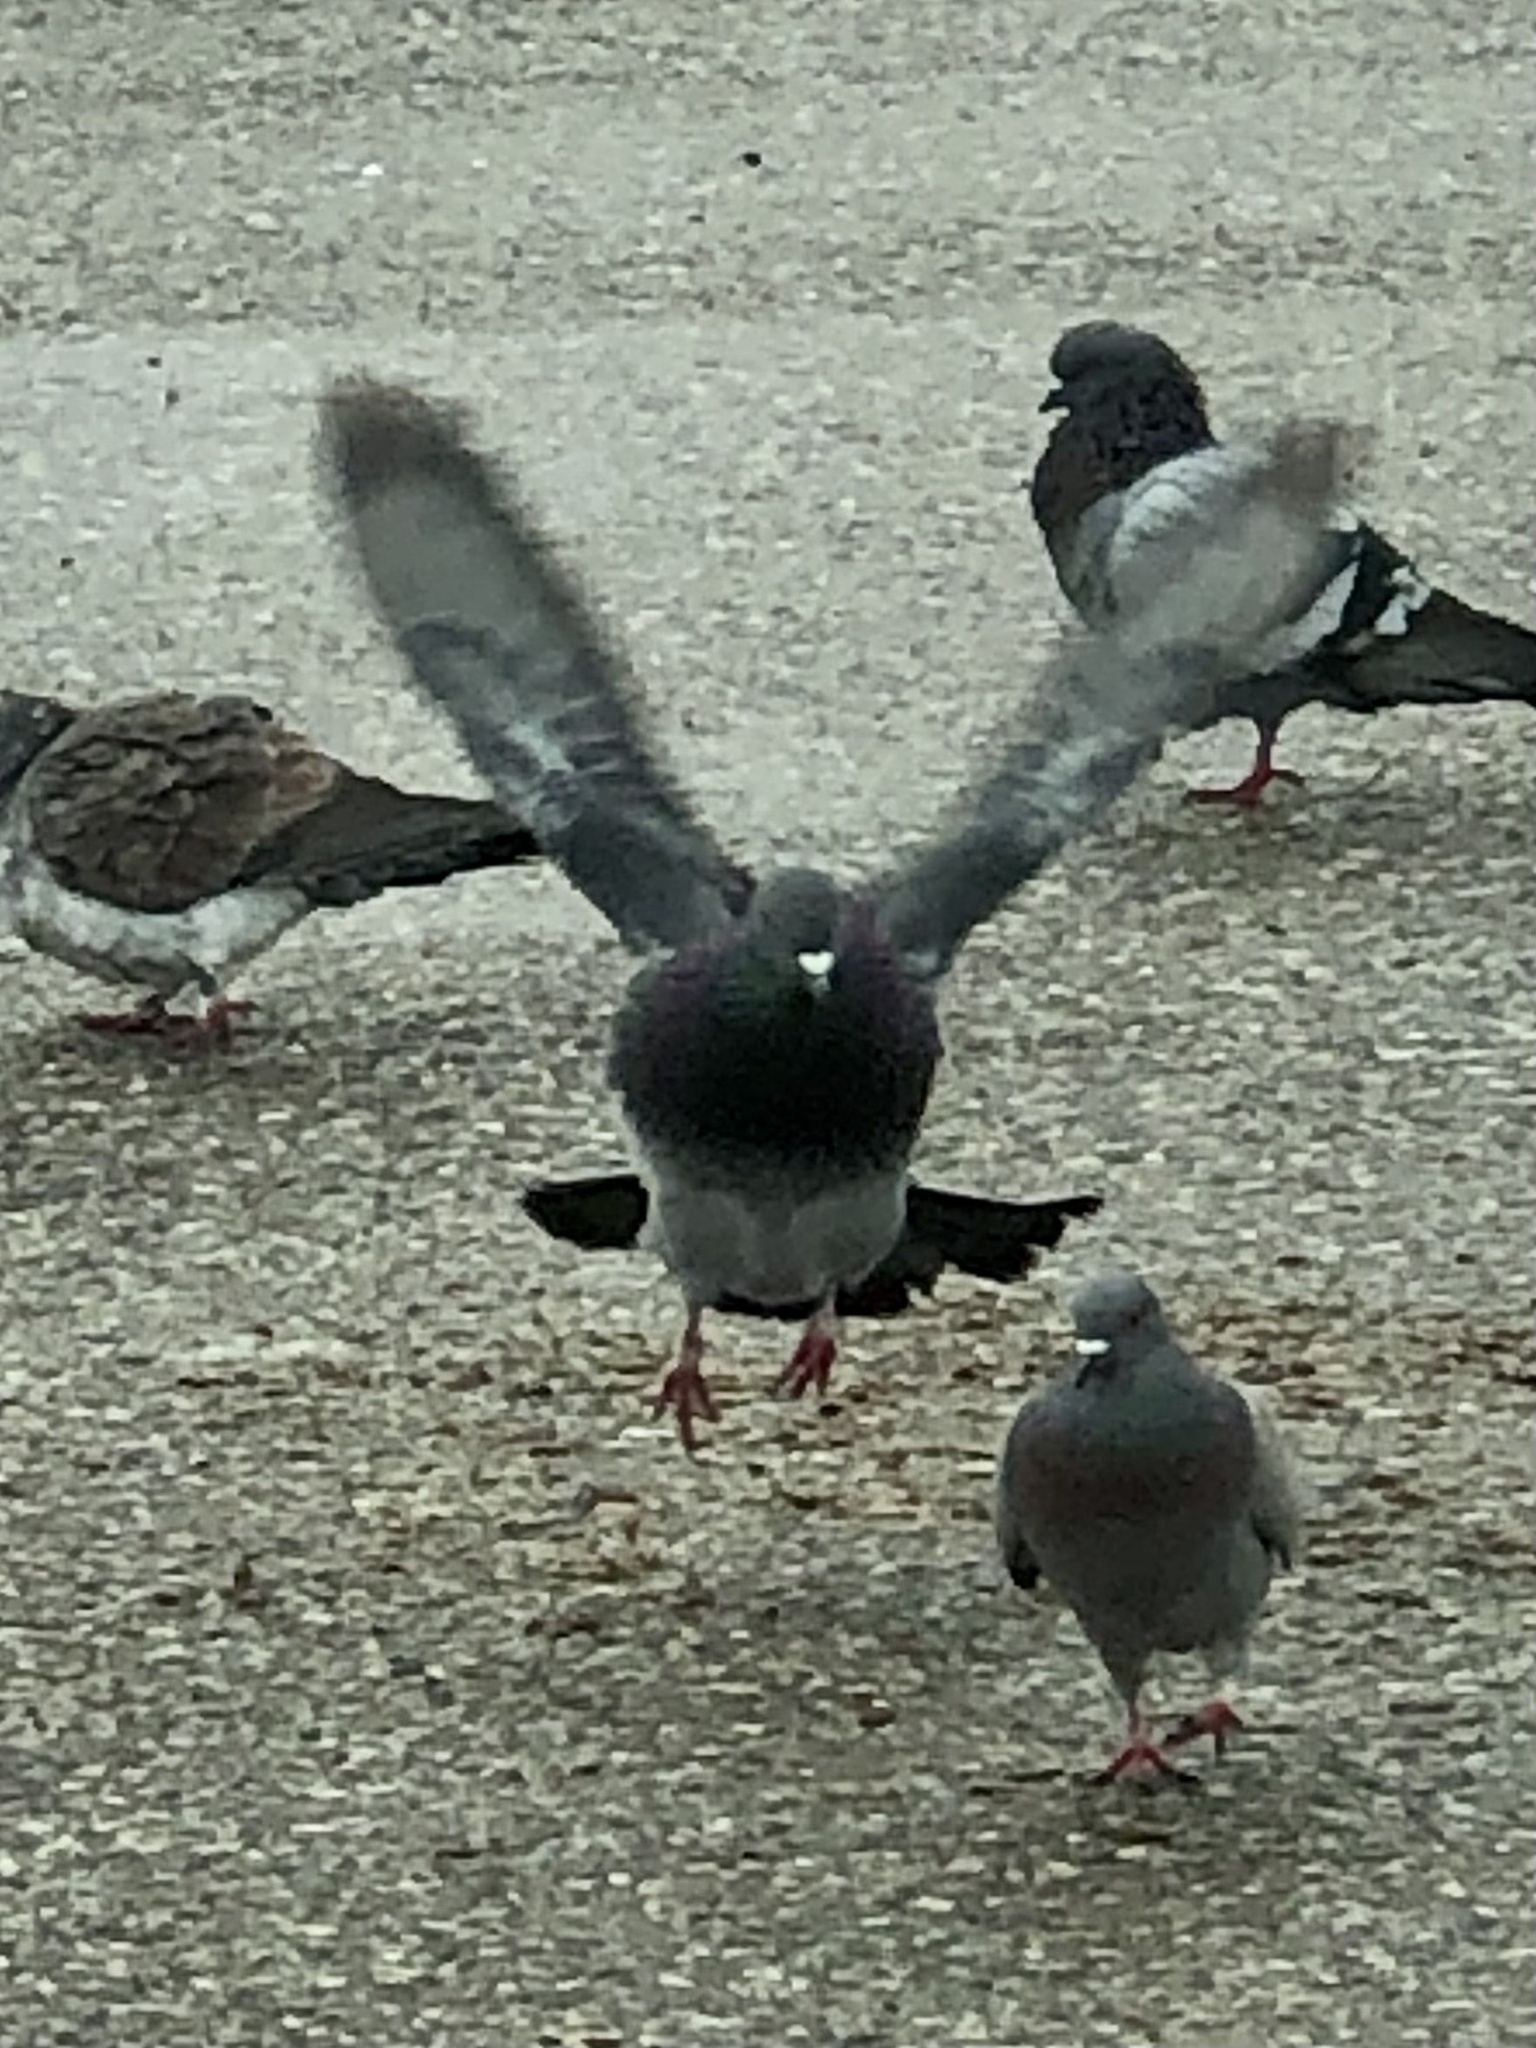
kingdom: Animalia
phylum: Chordata
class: Aves
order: Columbiformes
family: Columbidae
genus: Columba
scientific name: Columba livia
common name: Rock pigeon
